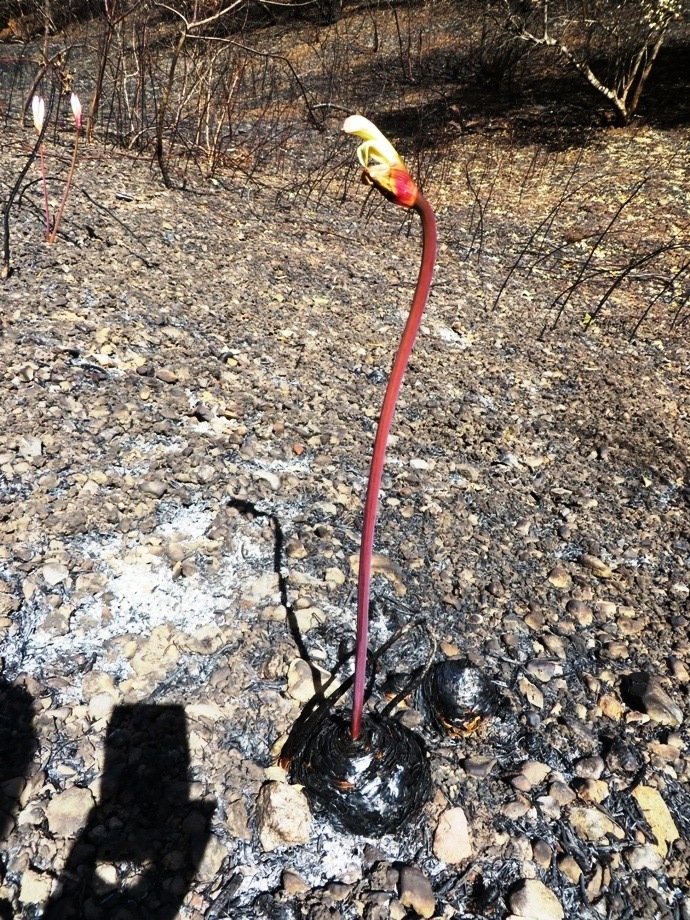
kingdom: Plantae
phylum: Tracheophyta
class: Liliopsida
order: Asparagales
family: Amaryllidaceae
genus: Amaryllis
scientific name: Amaryllis belladonna
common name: Jersey lily
